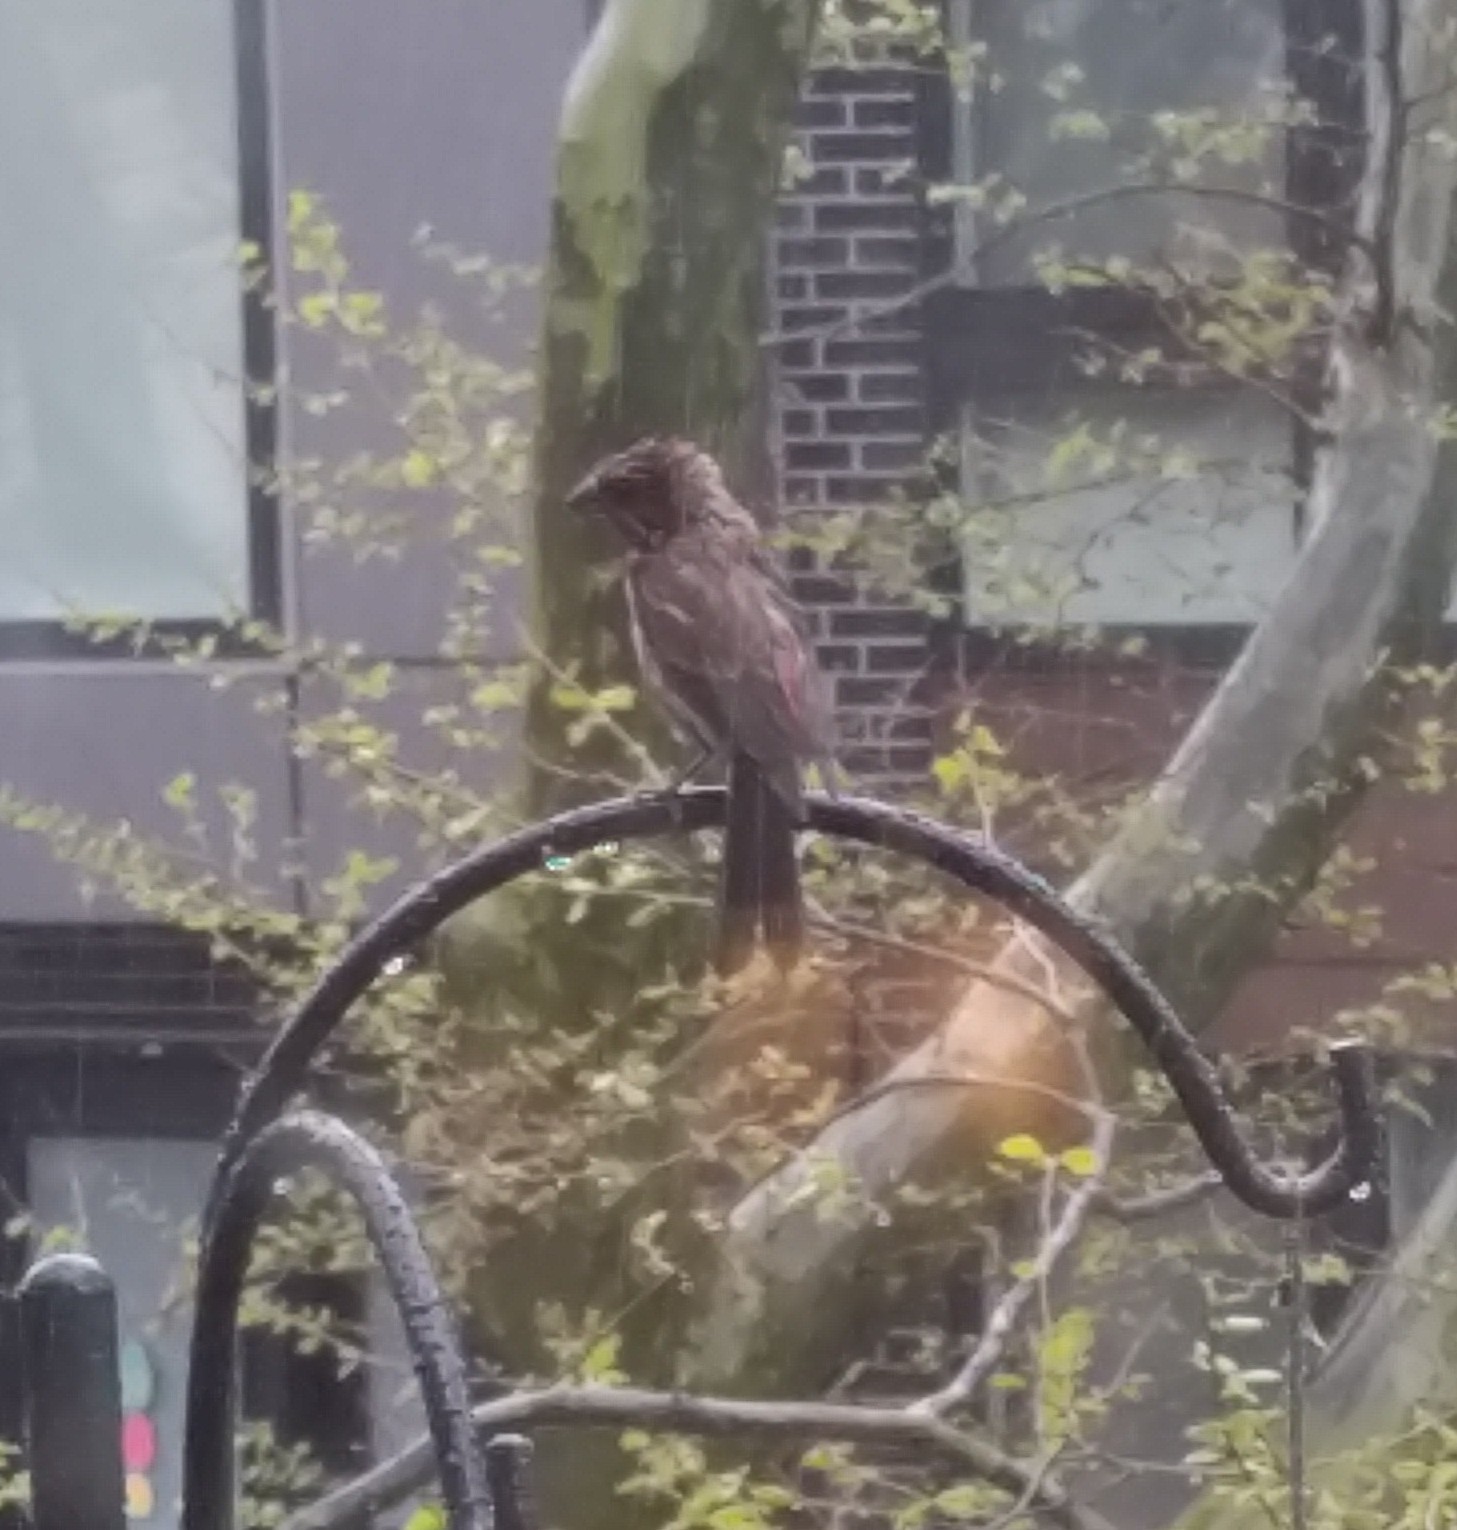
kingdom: Animalia
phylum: Chordata
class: Aves
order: Passeriformes
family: Fringillidae
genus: Haemorhous
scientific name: Haemorhous mexicanus
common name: House finch
